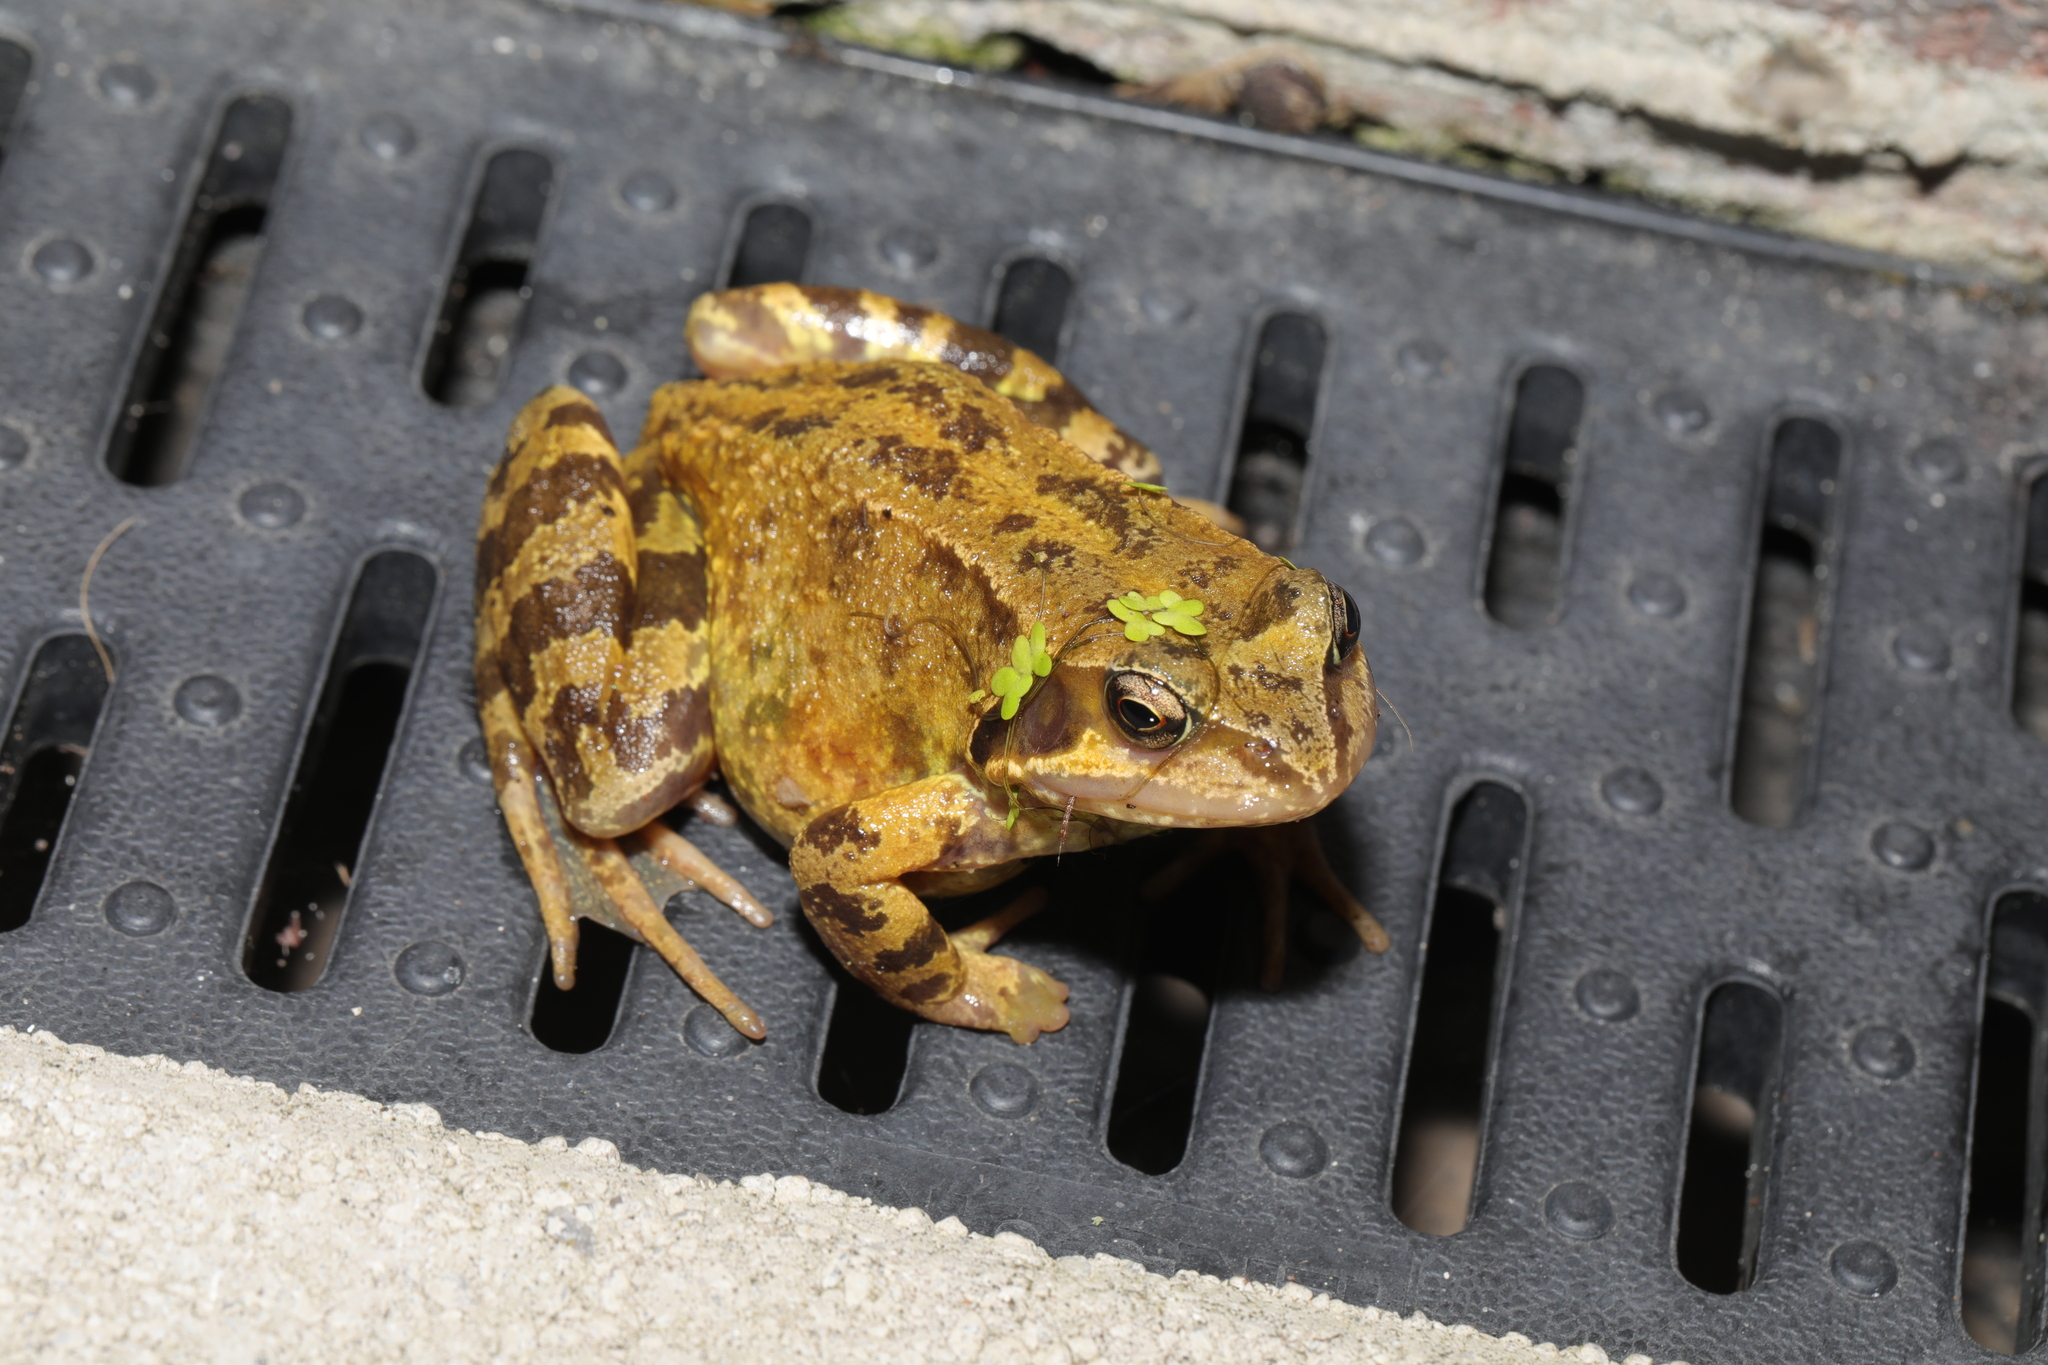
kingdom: Animalia
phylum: Chordata
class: Amphibia
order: Anura
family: Ranidae
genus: Rana
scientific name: Rana temporaria
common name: Common frog
